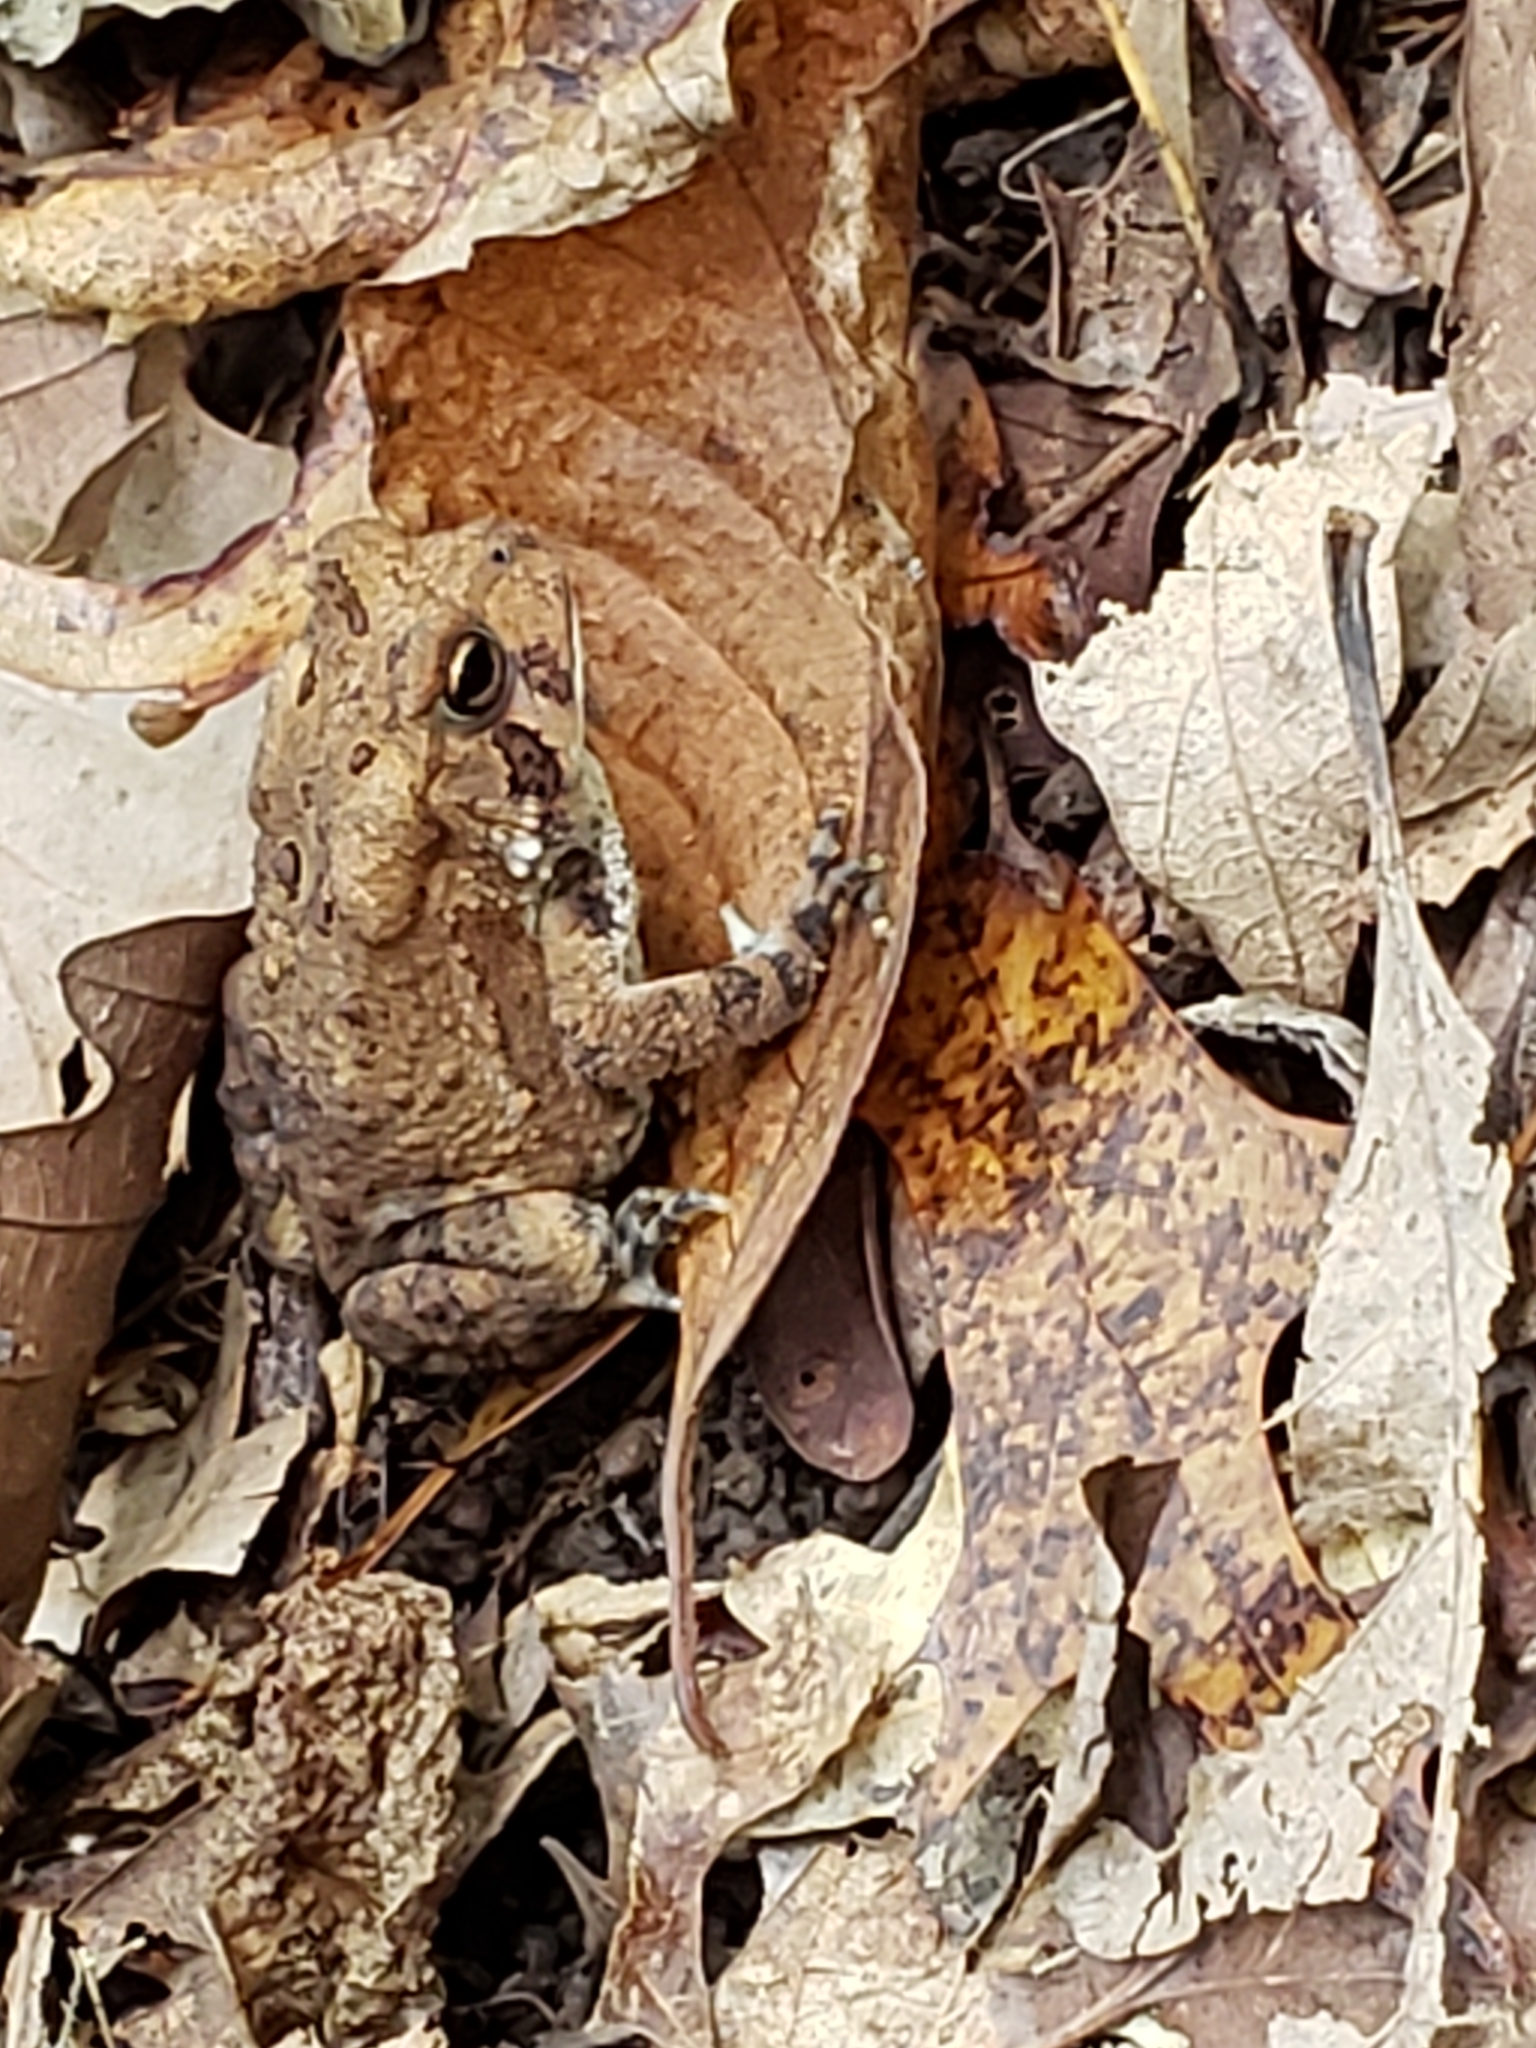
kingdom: Animalia
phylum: Chordata
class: Amphibia
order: Anura
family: Bufonidae
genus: Anaxyrus
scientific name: Anaxyrus americanus
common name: American toad
